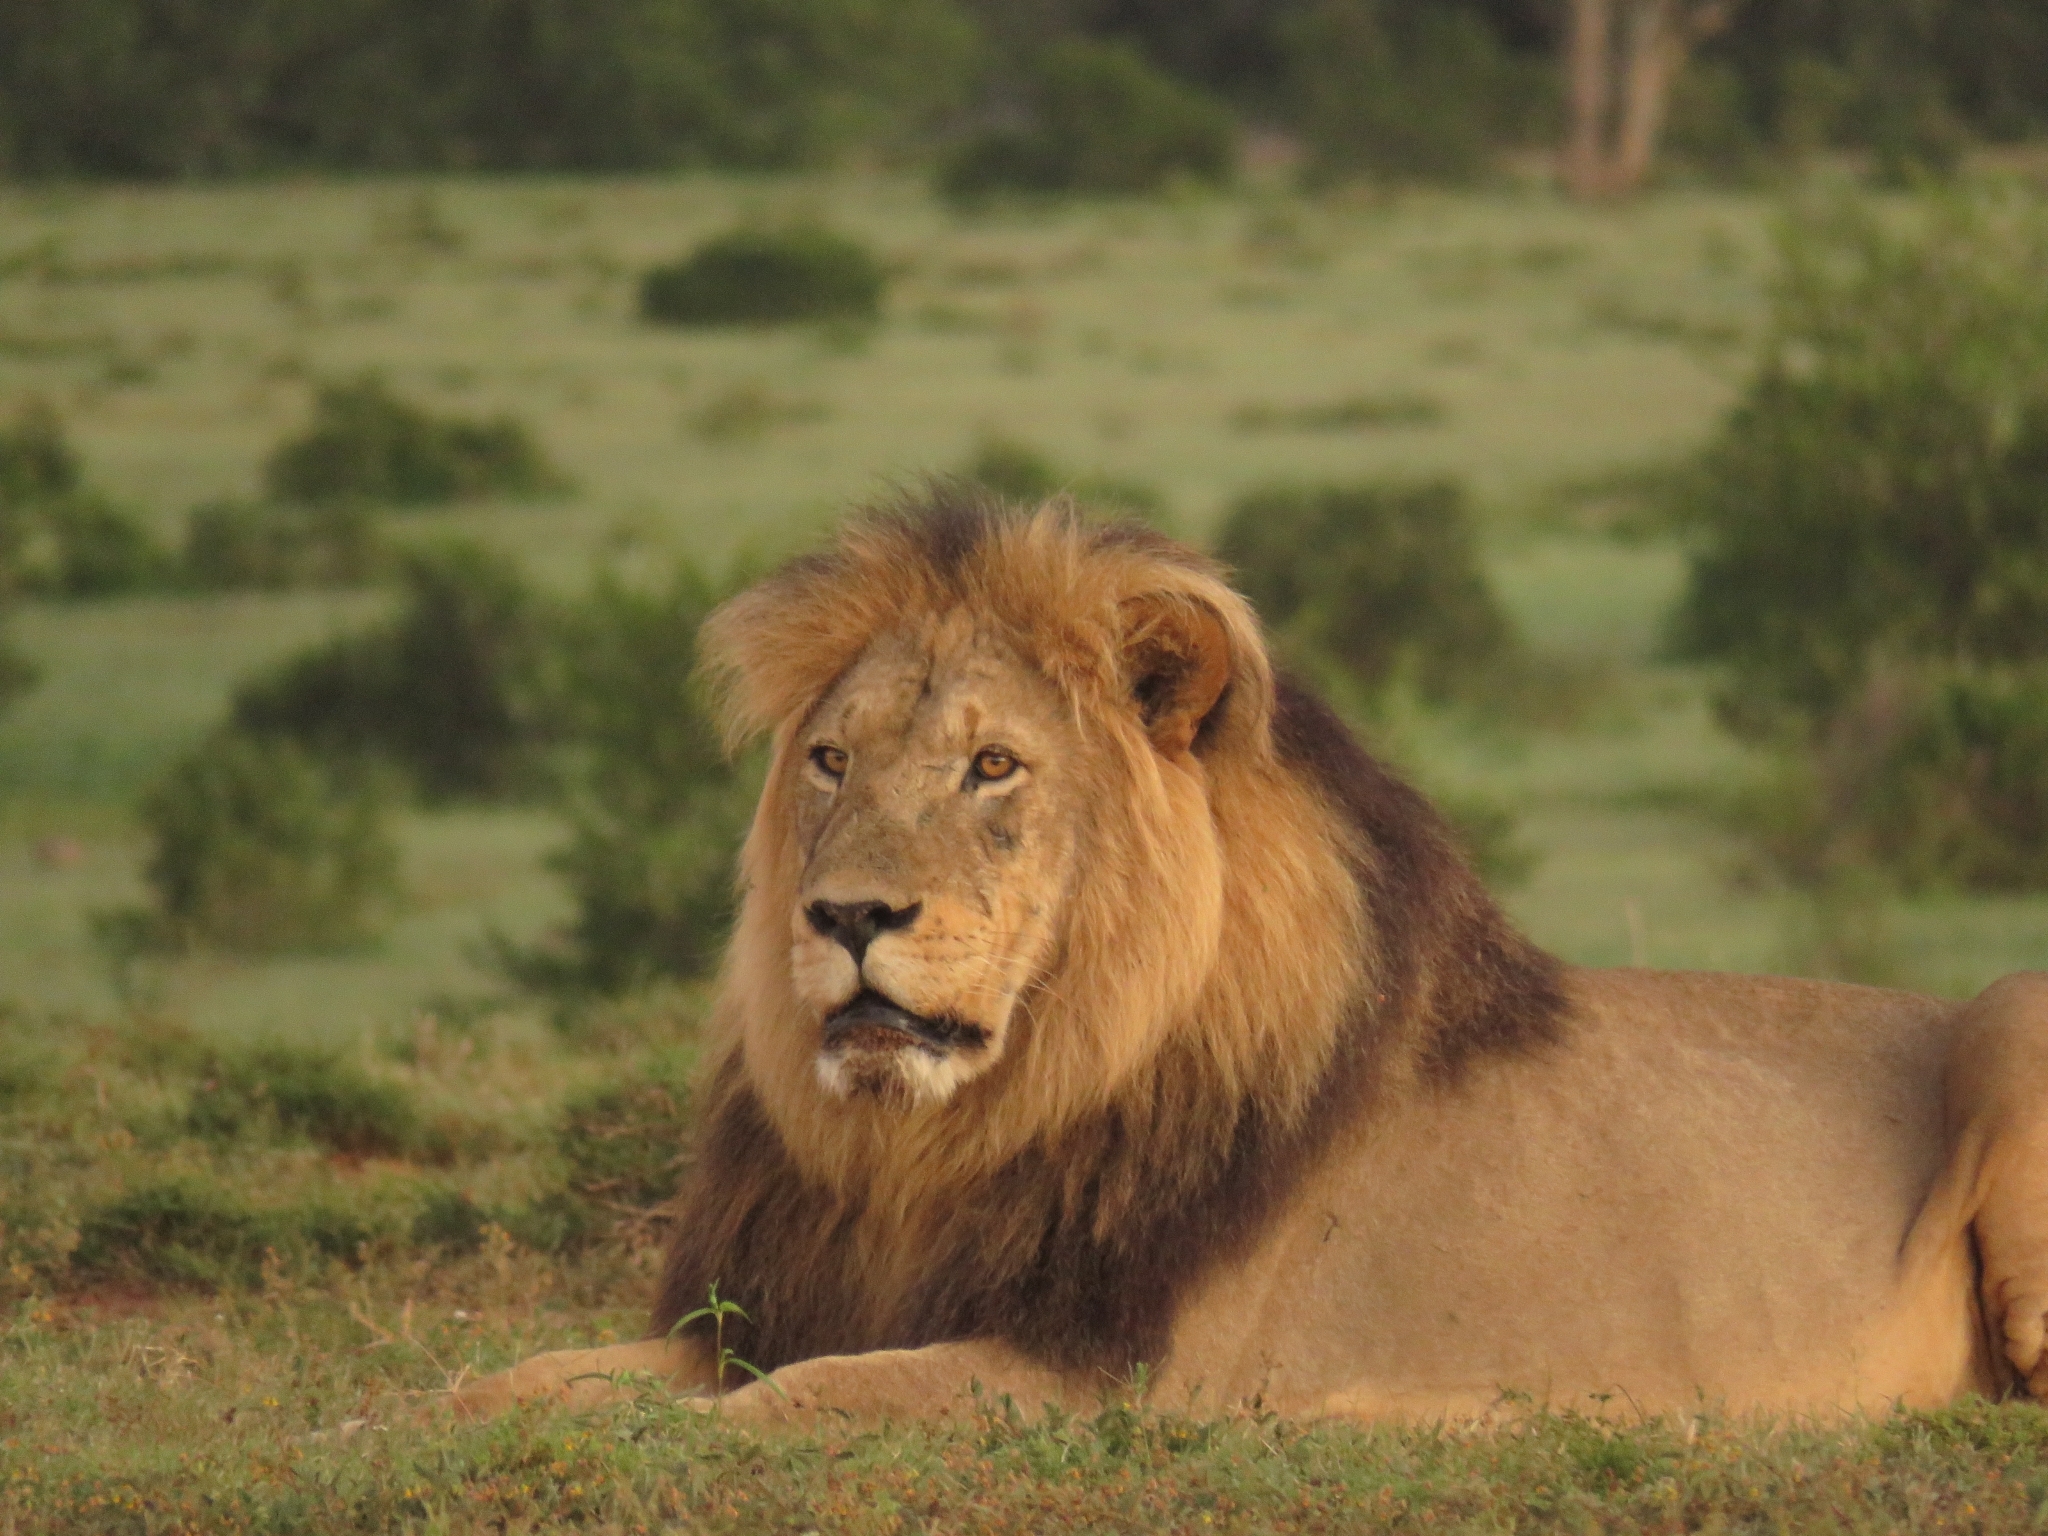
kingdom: Animalia
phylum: Chordata
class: Mammalia
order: Carnivora
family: Felidae
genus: Panthera
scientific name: Panthera leo
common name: Lion
